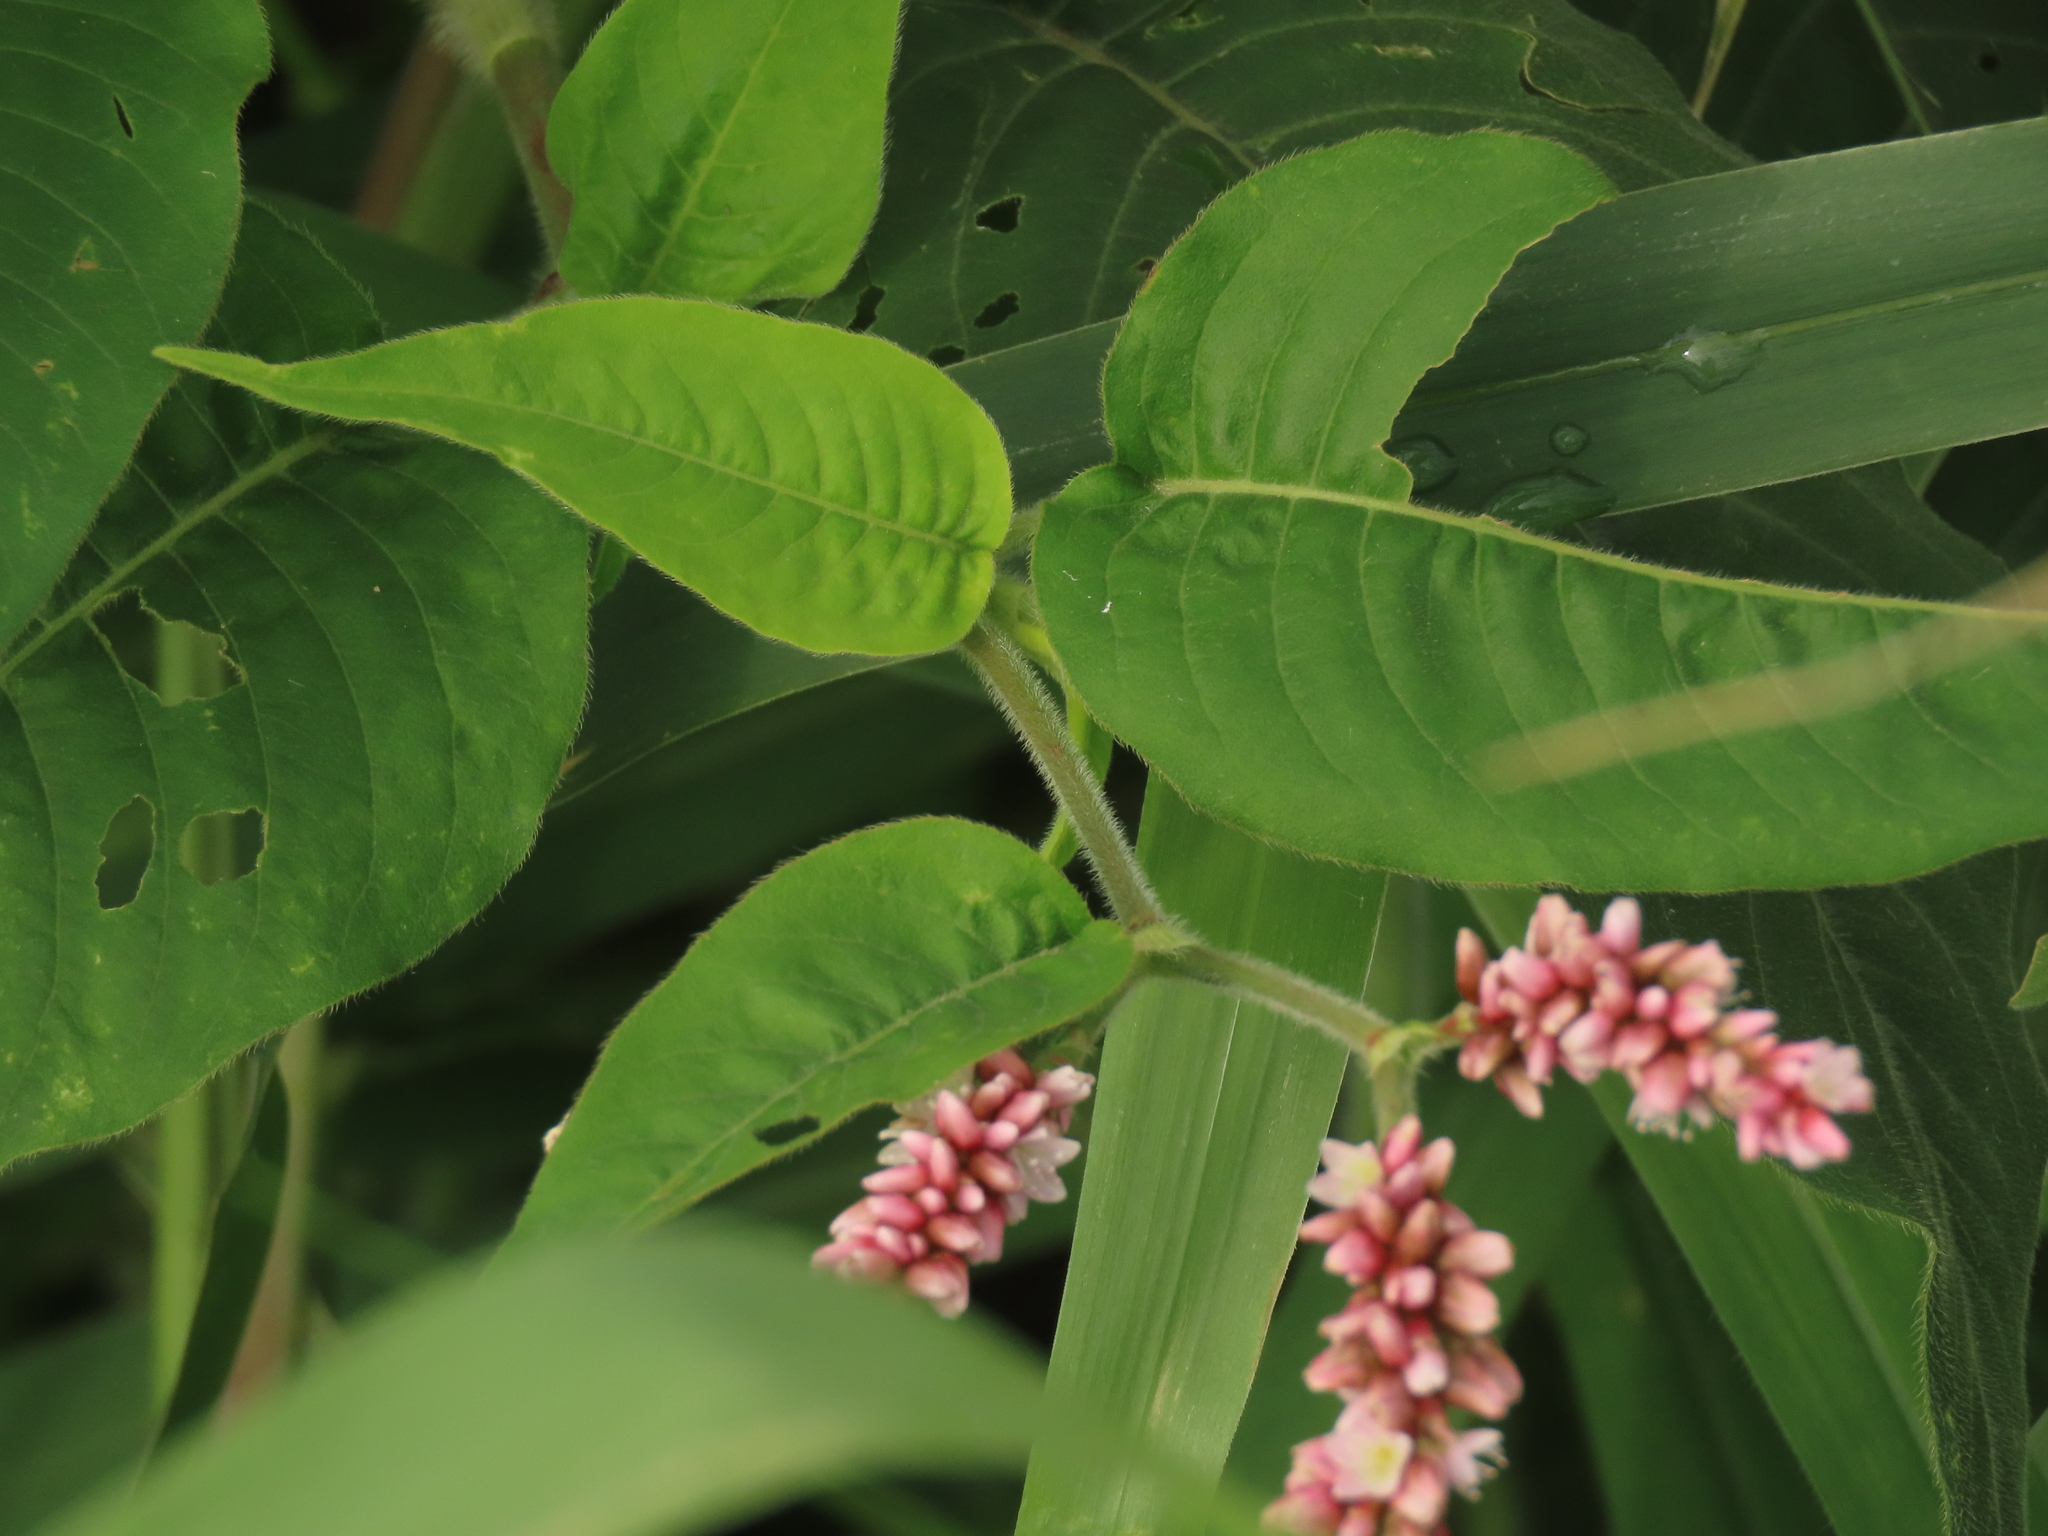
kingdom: Plantae
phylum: Tracheophyta
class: Magnoliopsida
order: Caryophyllales
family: Polygonaceae
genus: Persicaria
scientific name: Persicaria orientalis
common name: Kiss-me-over-the-garden-gate
